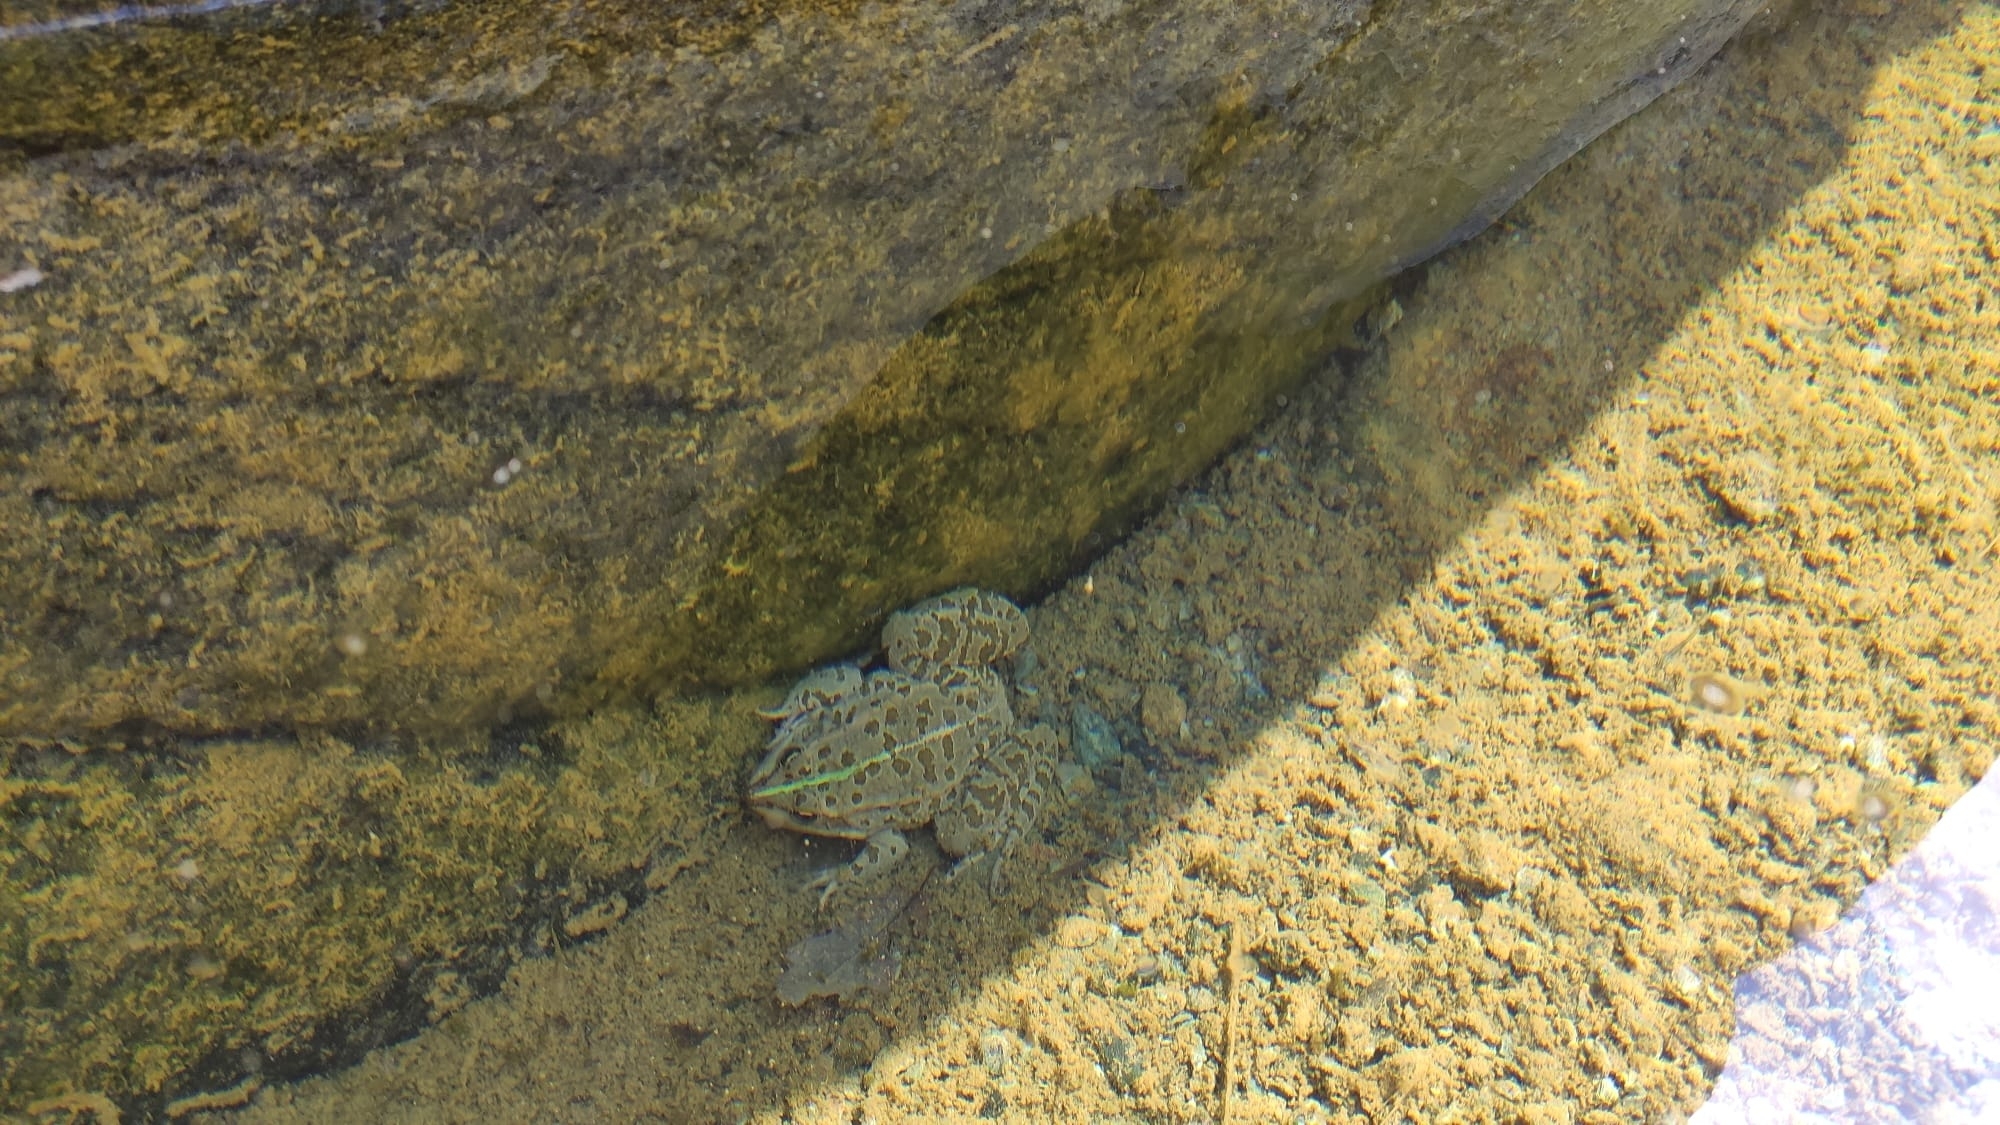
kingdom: Animalia
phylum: Chordata
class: Amphibia
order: Anura
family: Ranidae
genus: Pelophylax
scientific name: Pelophylax
